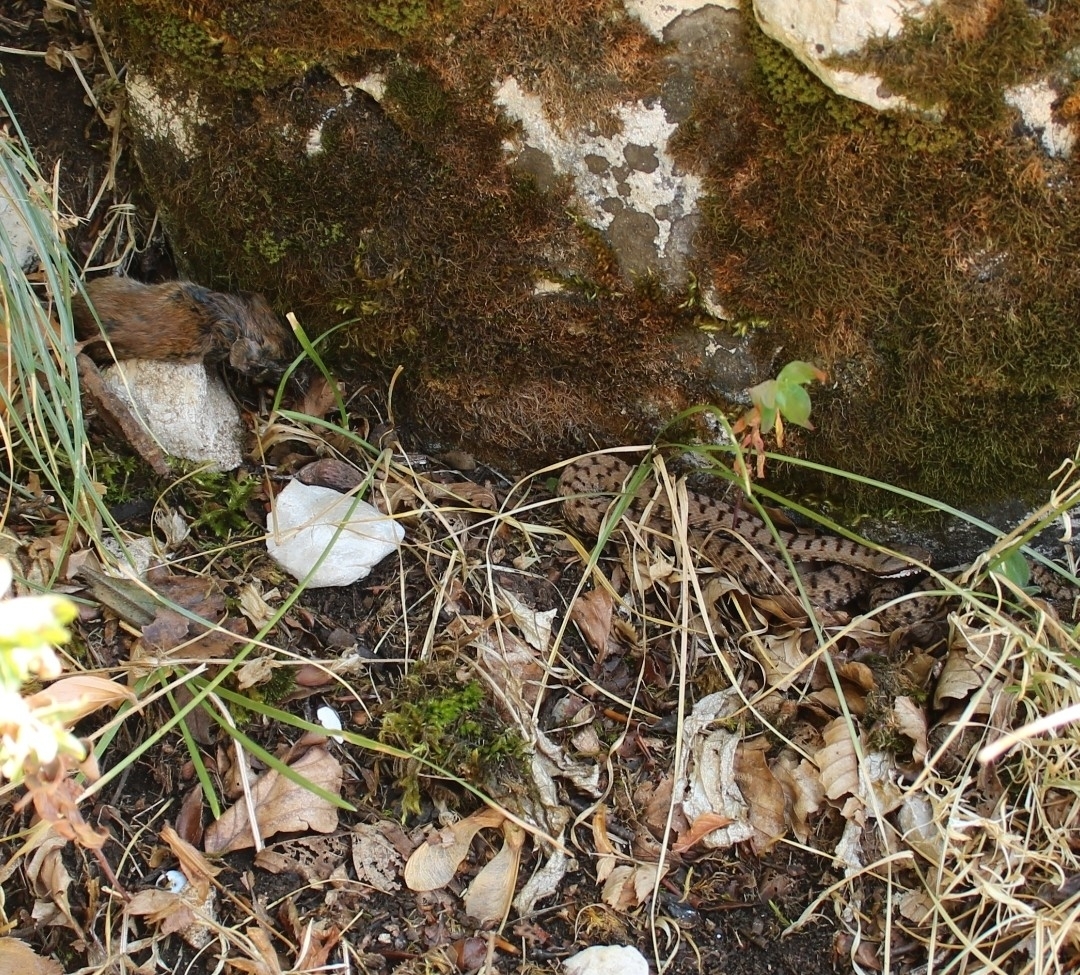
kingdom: Animalia
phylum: Chordata
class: Squamata
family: Viperidae
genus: Vipera
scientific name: Vipera aspis
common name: Asp viper
